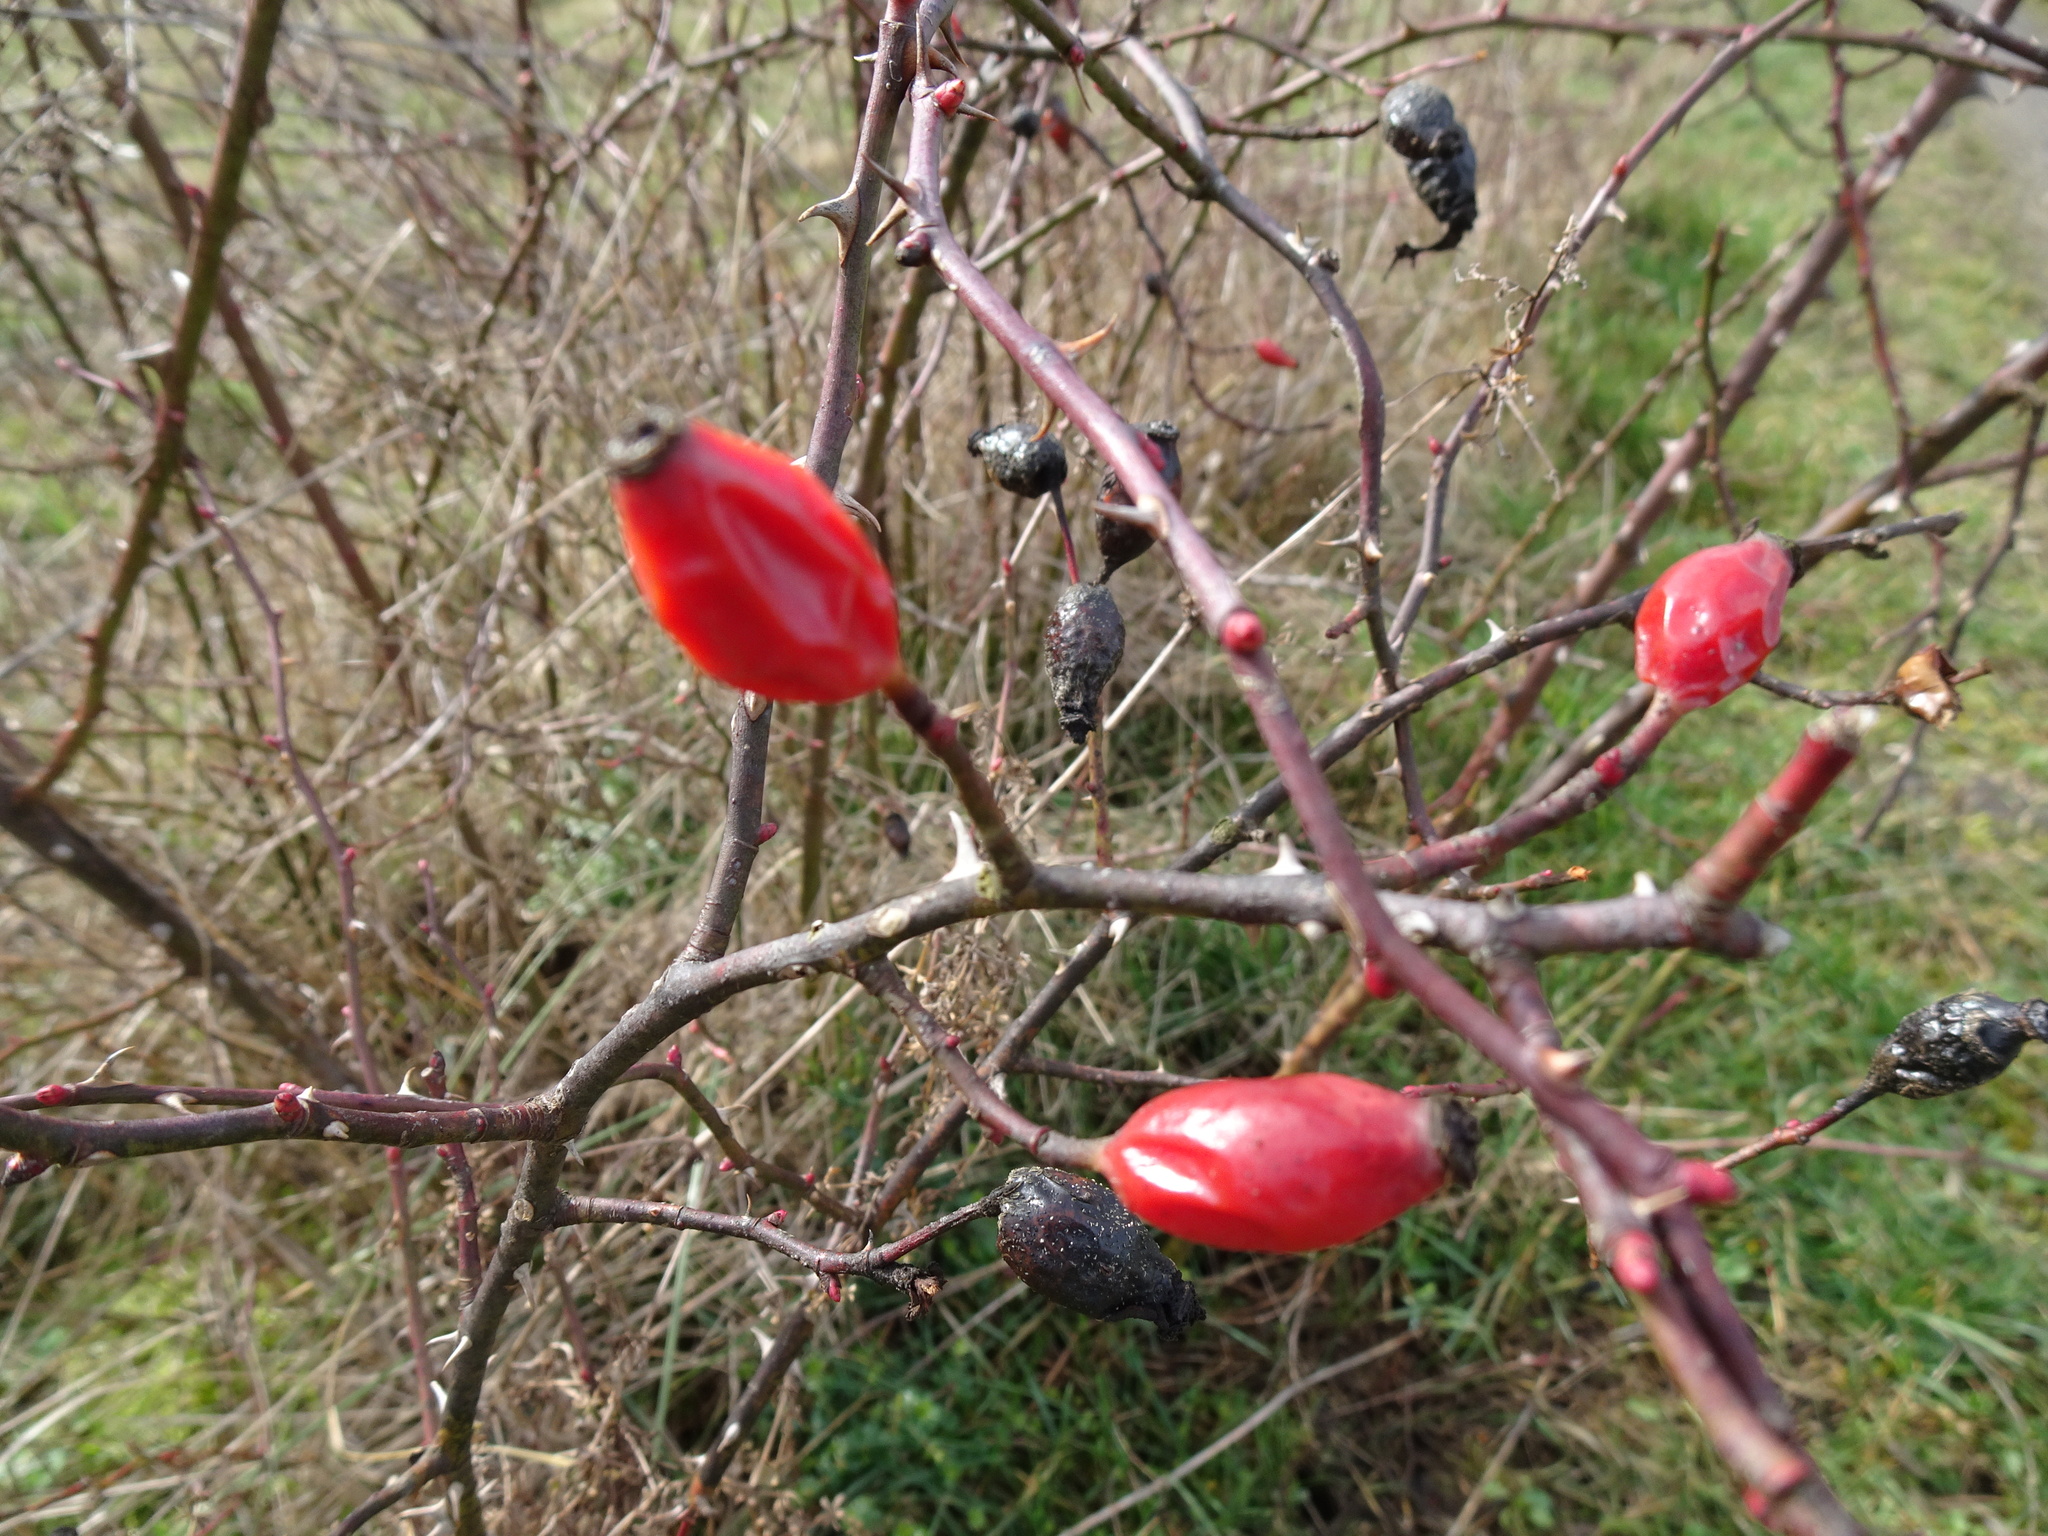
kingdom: Plantae
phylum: Tracheophyta
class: Magnoliopsida
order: Rosales
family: Rosaceae
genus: Rosa
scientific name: Rosa canina
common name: Dog rose
